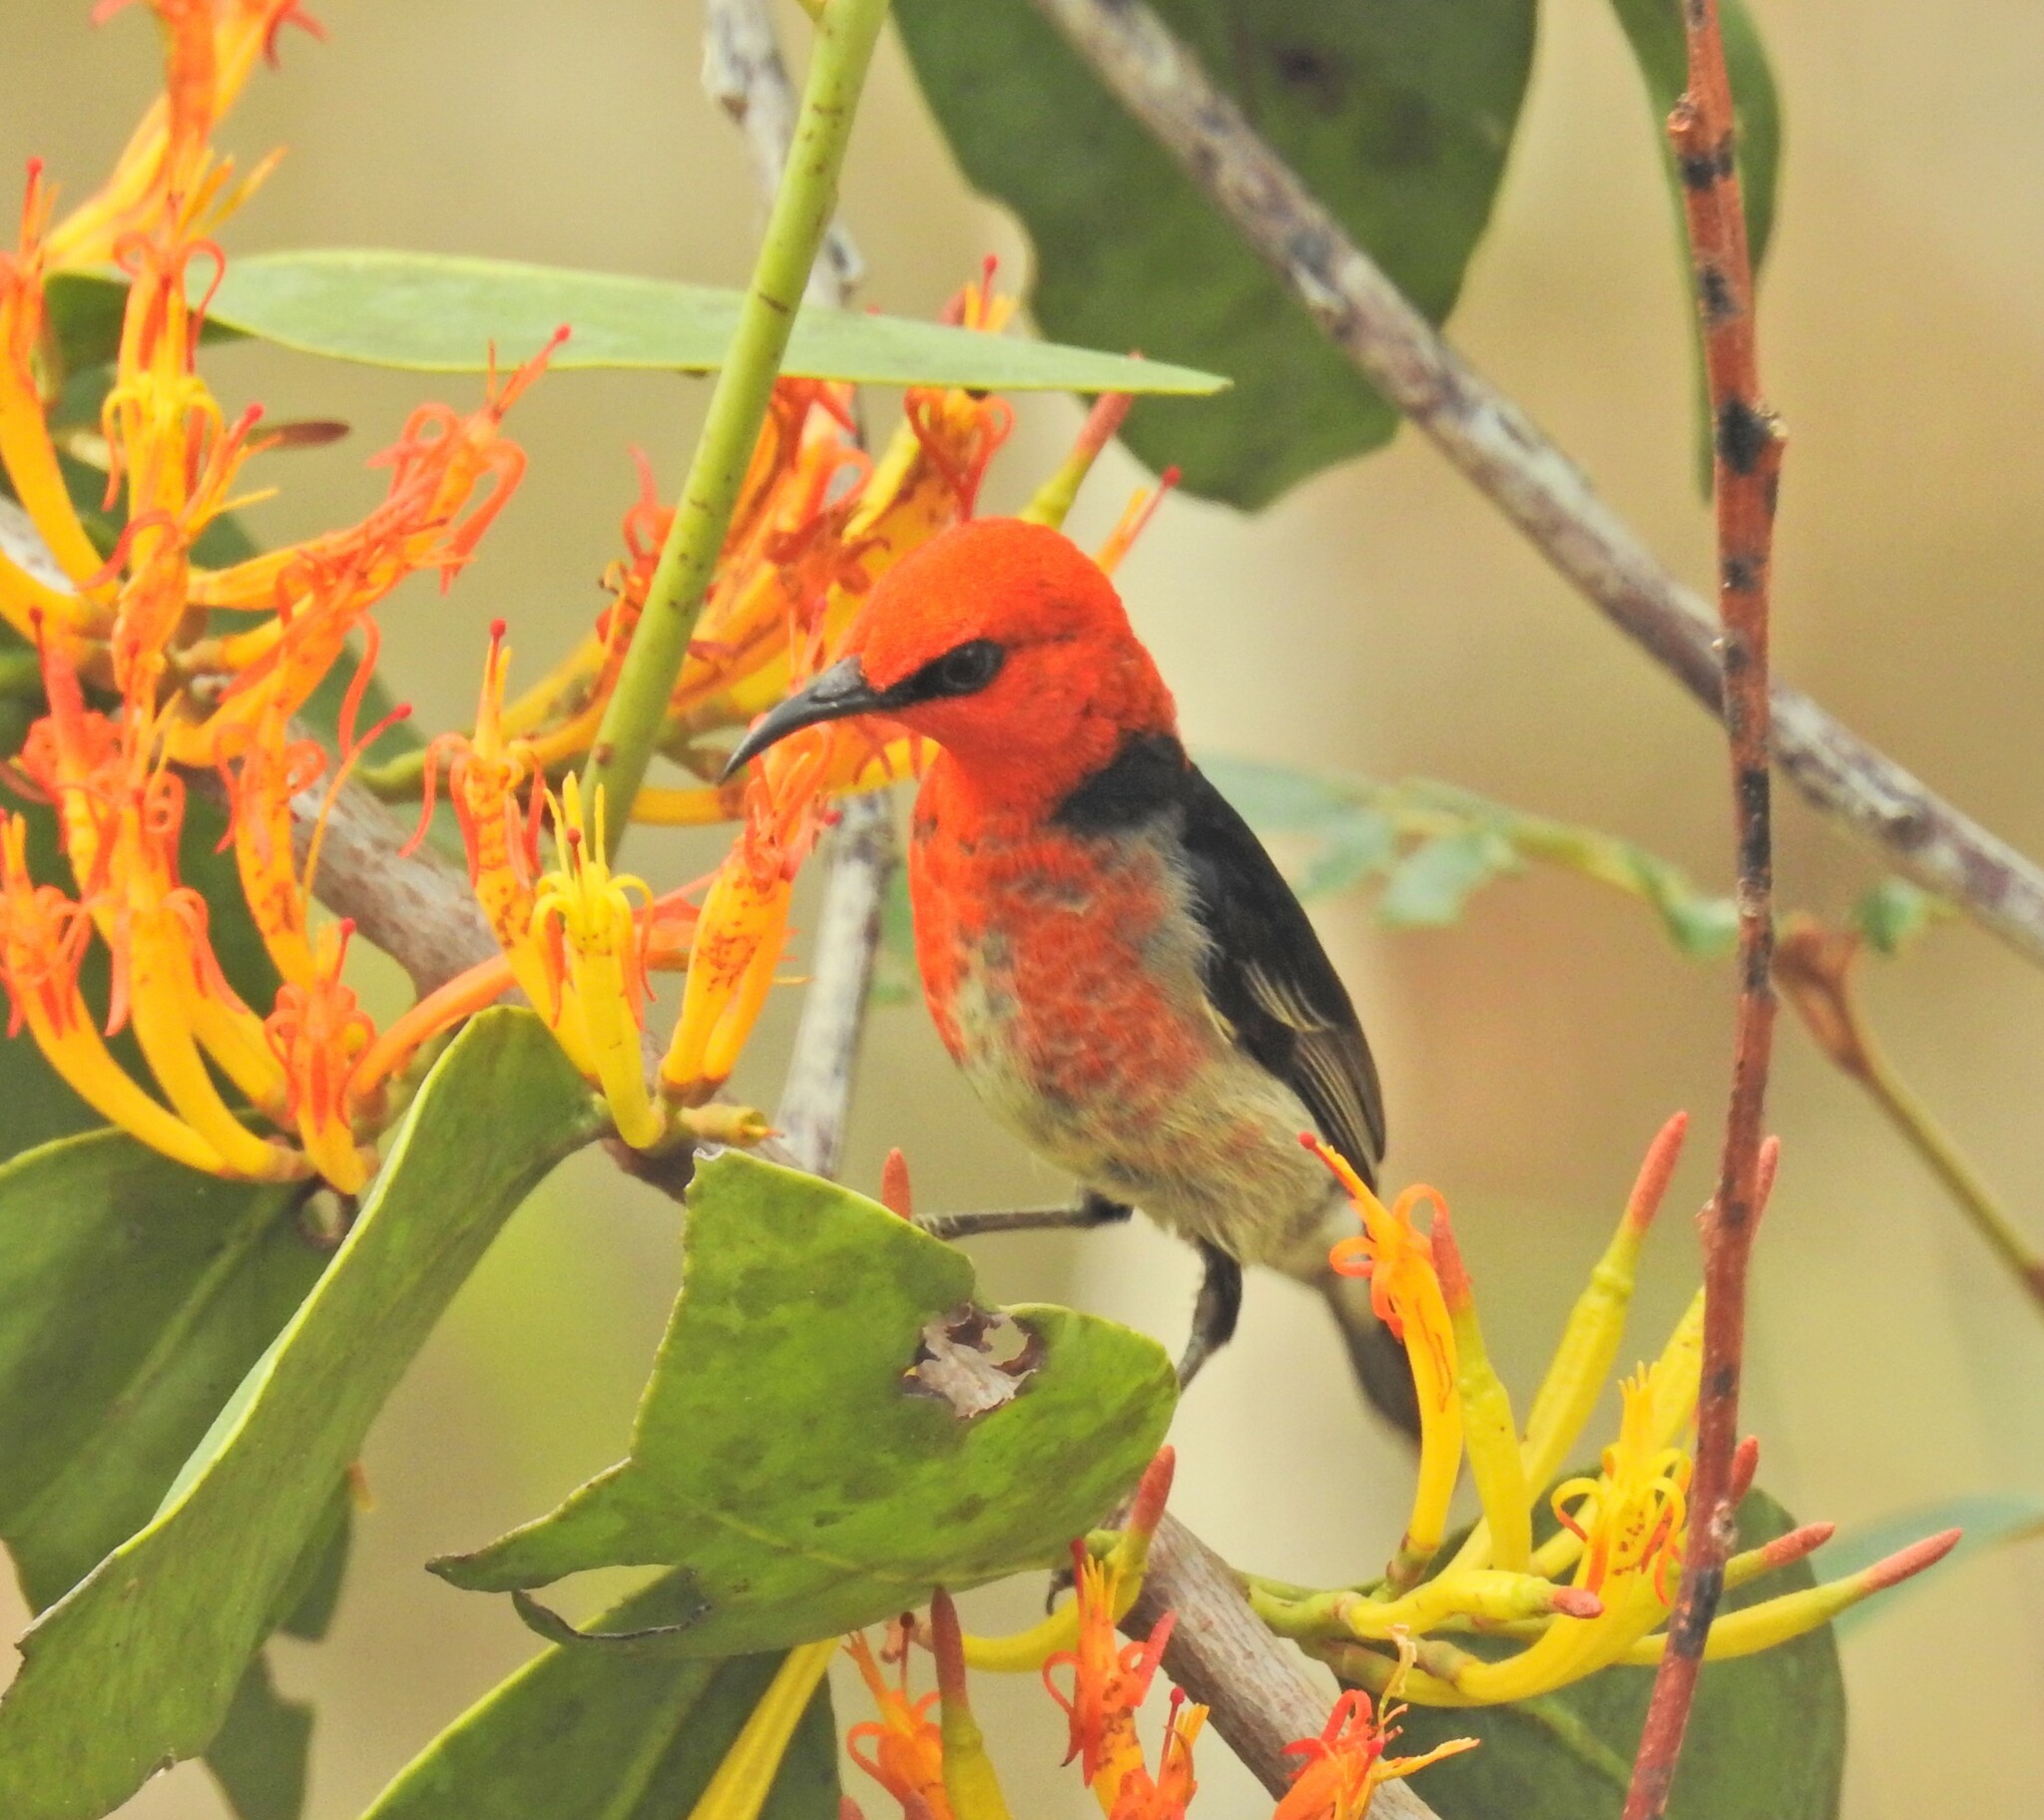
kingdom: Animalia
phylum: Chordata
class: Aves
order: Passeriformes
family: Meliphagidae
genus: Myzomela
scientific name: Myzomela sanguinolenta
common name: Scarlet myzomela
